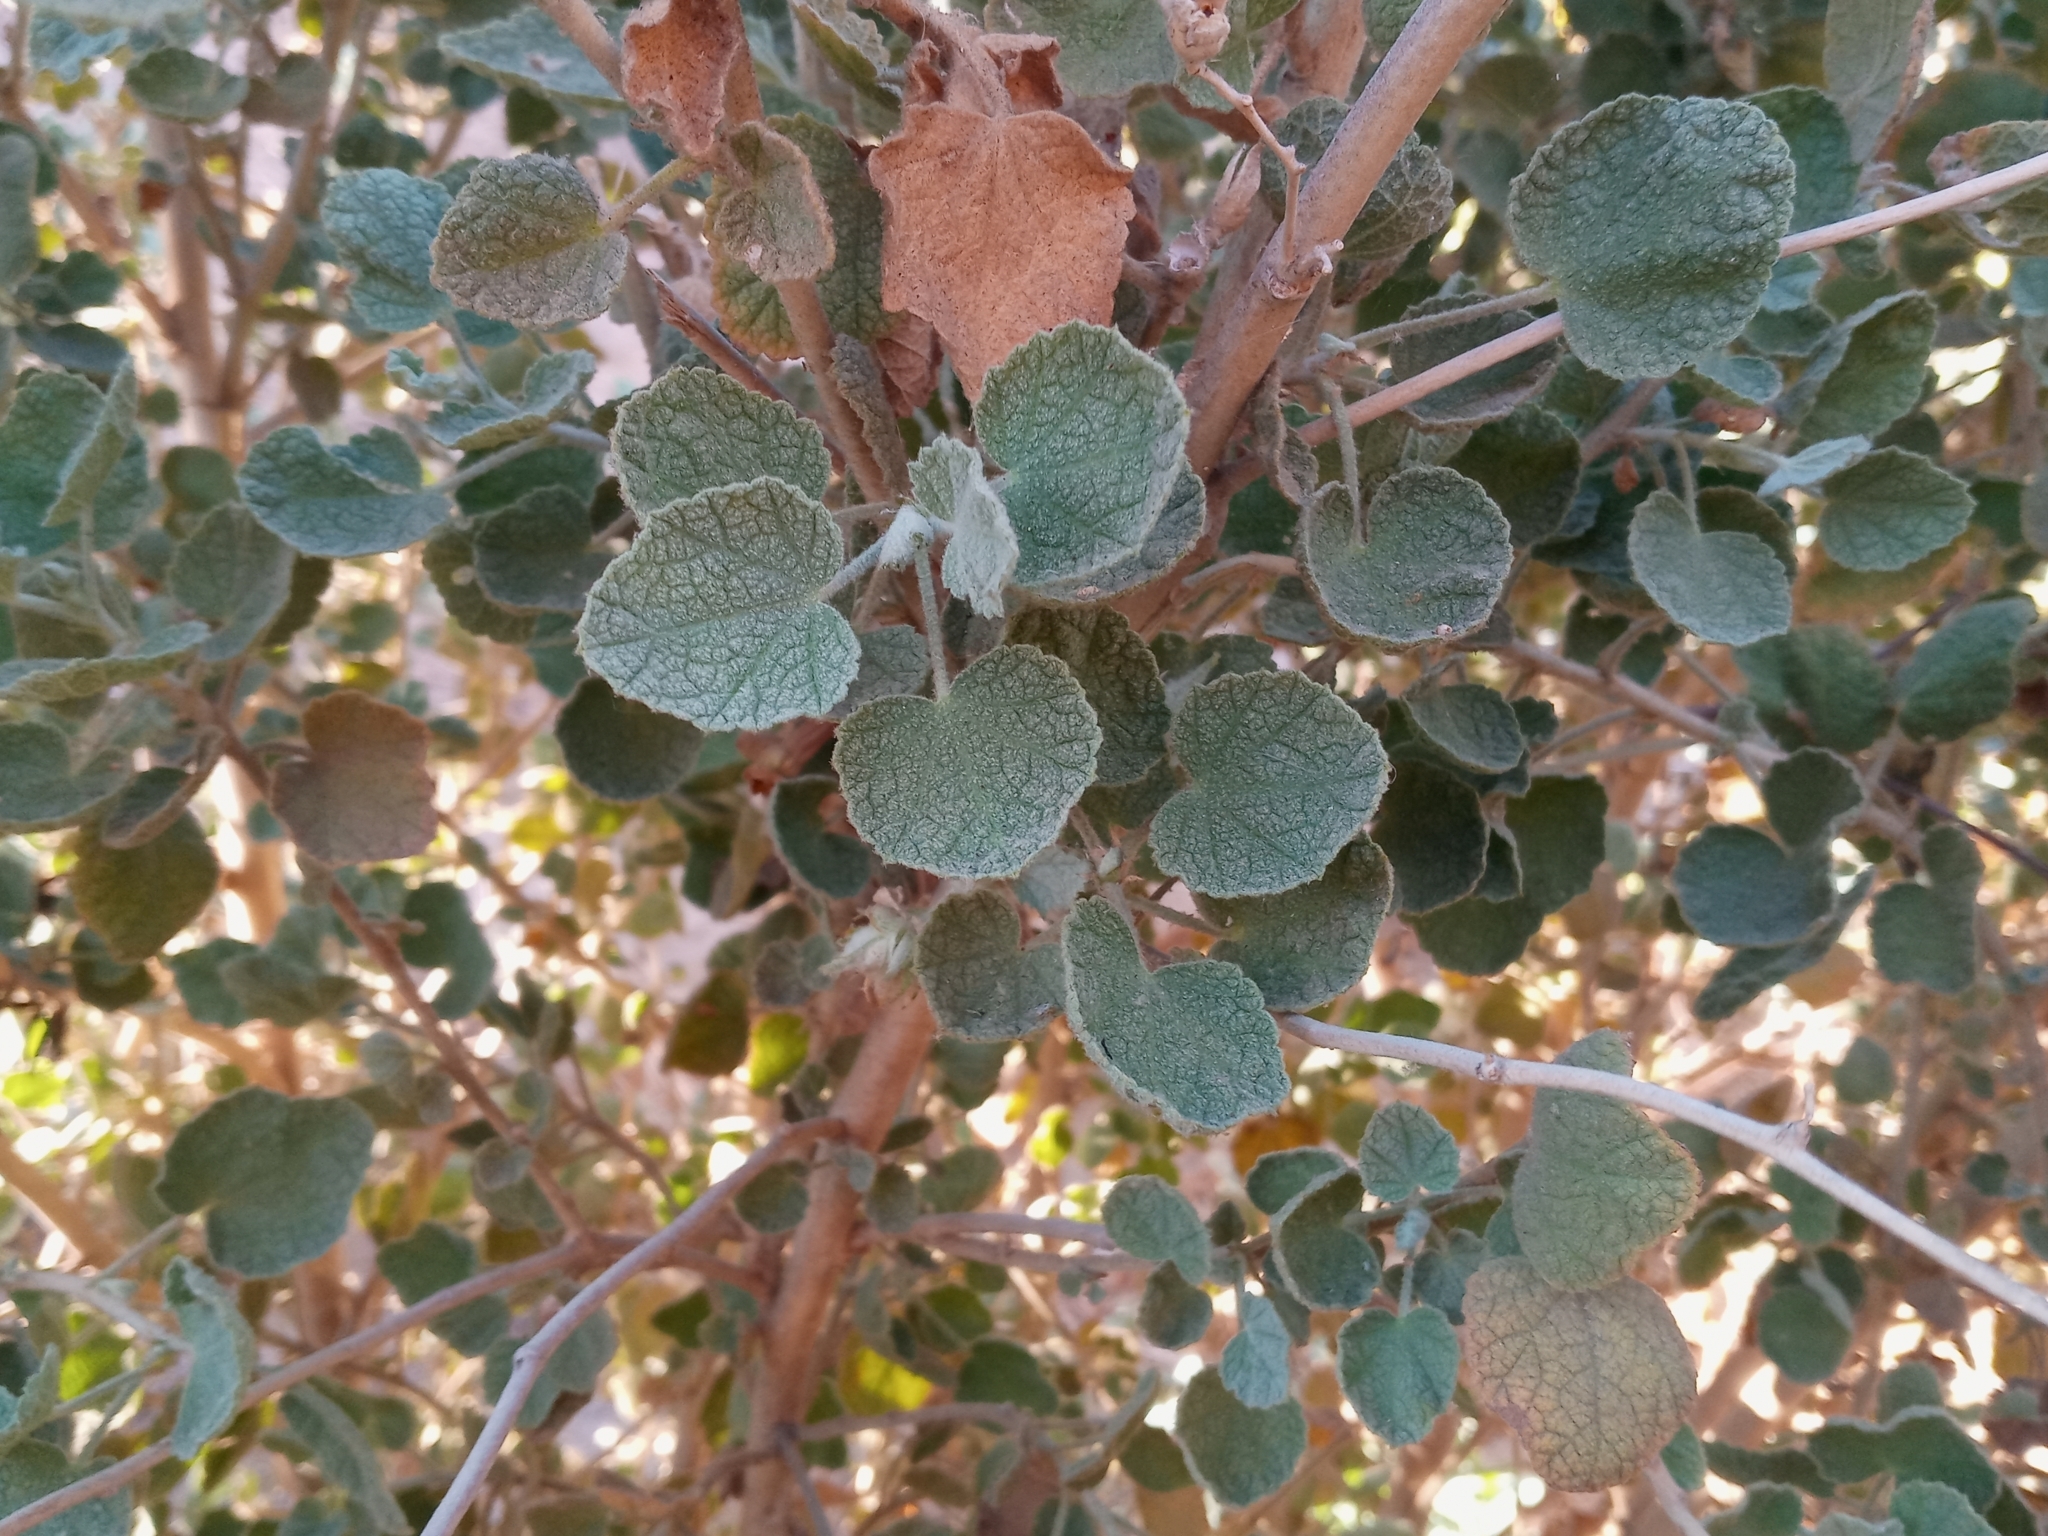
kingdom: Plantae
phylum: Tracheophyta
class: Magnoliopsida
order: Malvales
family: Malvaceae
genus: Malacothamnus
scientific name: Malacothamnus marrubioides
